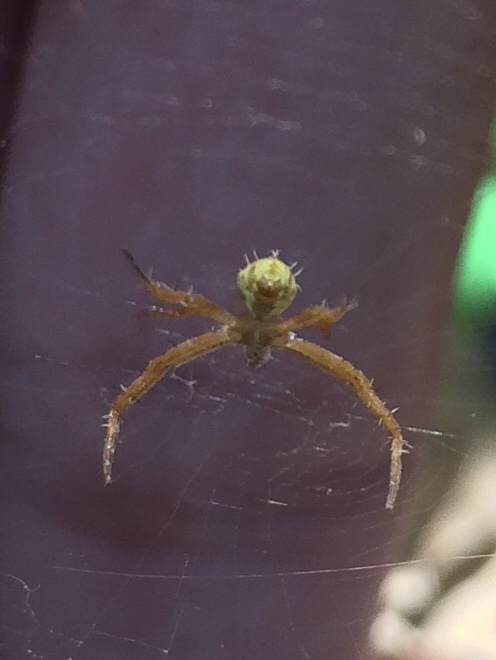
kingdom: Animalia
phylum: Arthropoda
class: Arachnida
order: Araneae
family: Araneidae
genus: Argiope
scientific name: Argiope aemula
